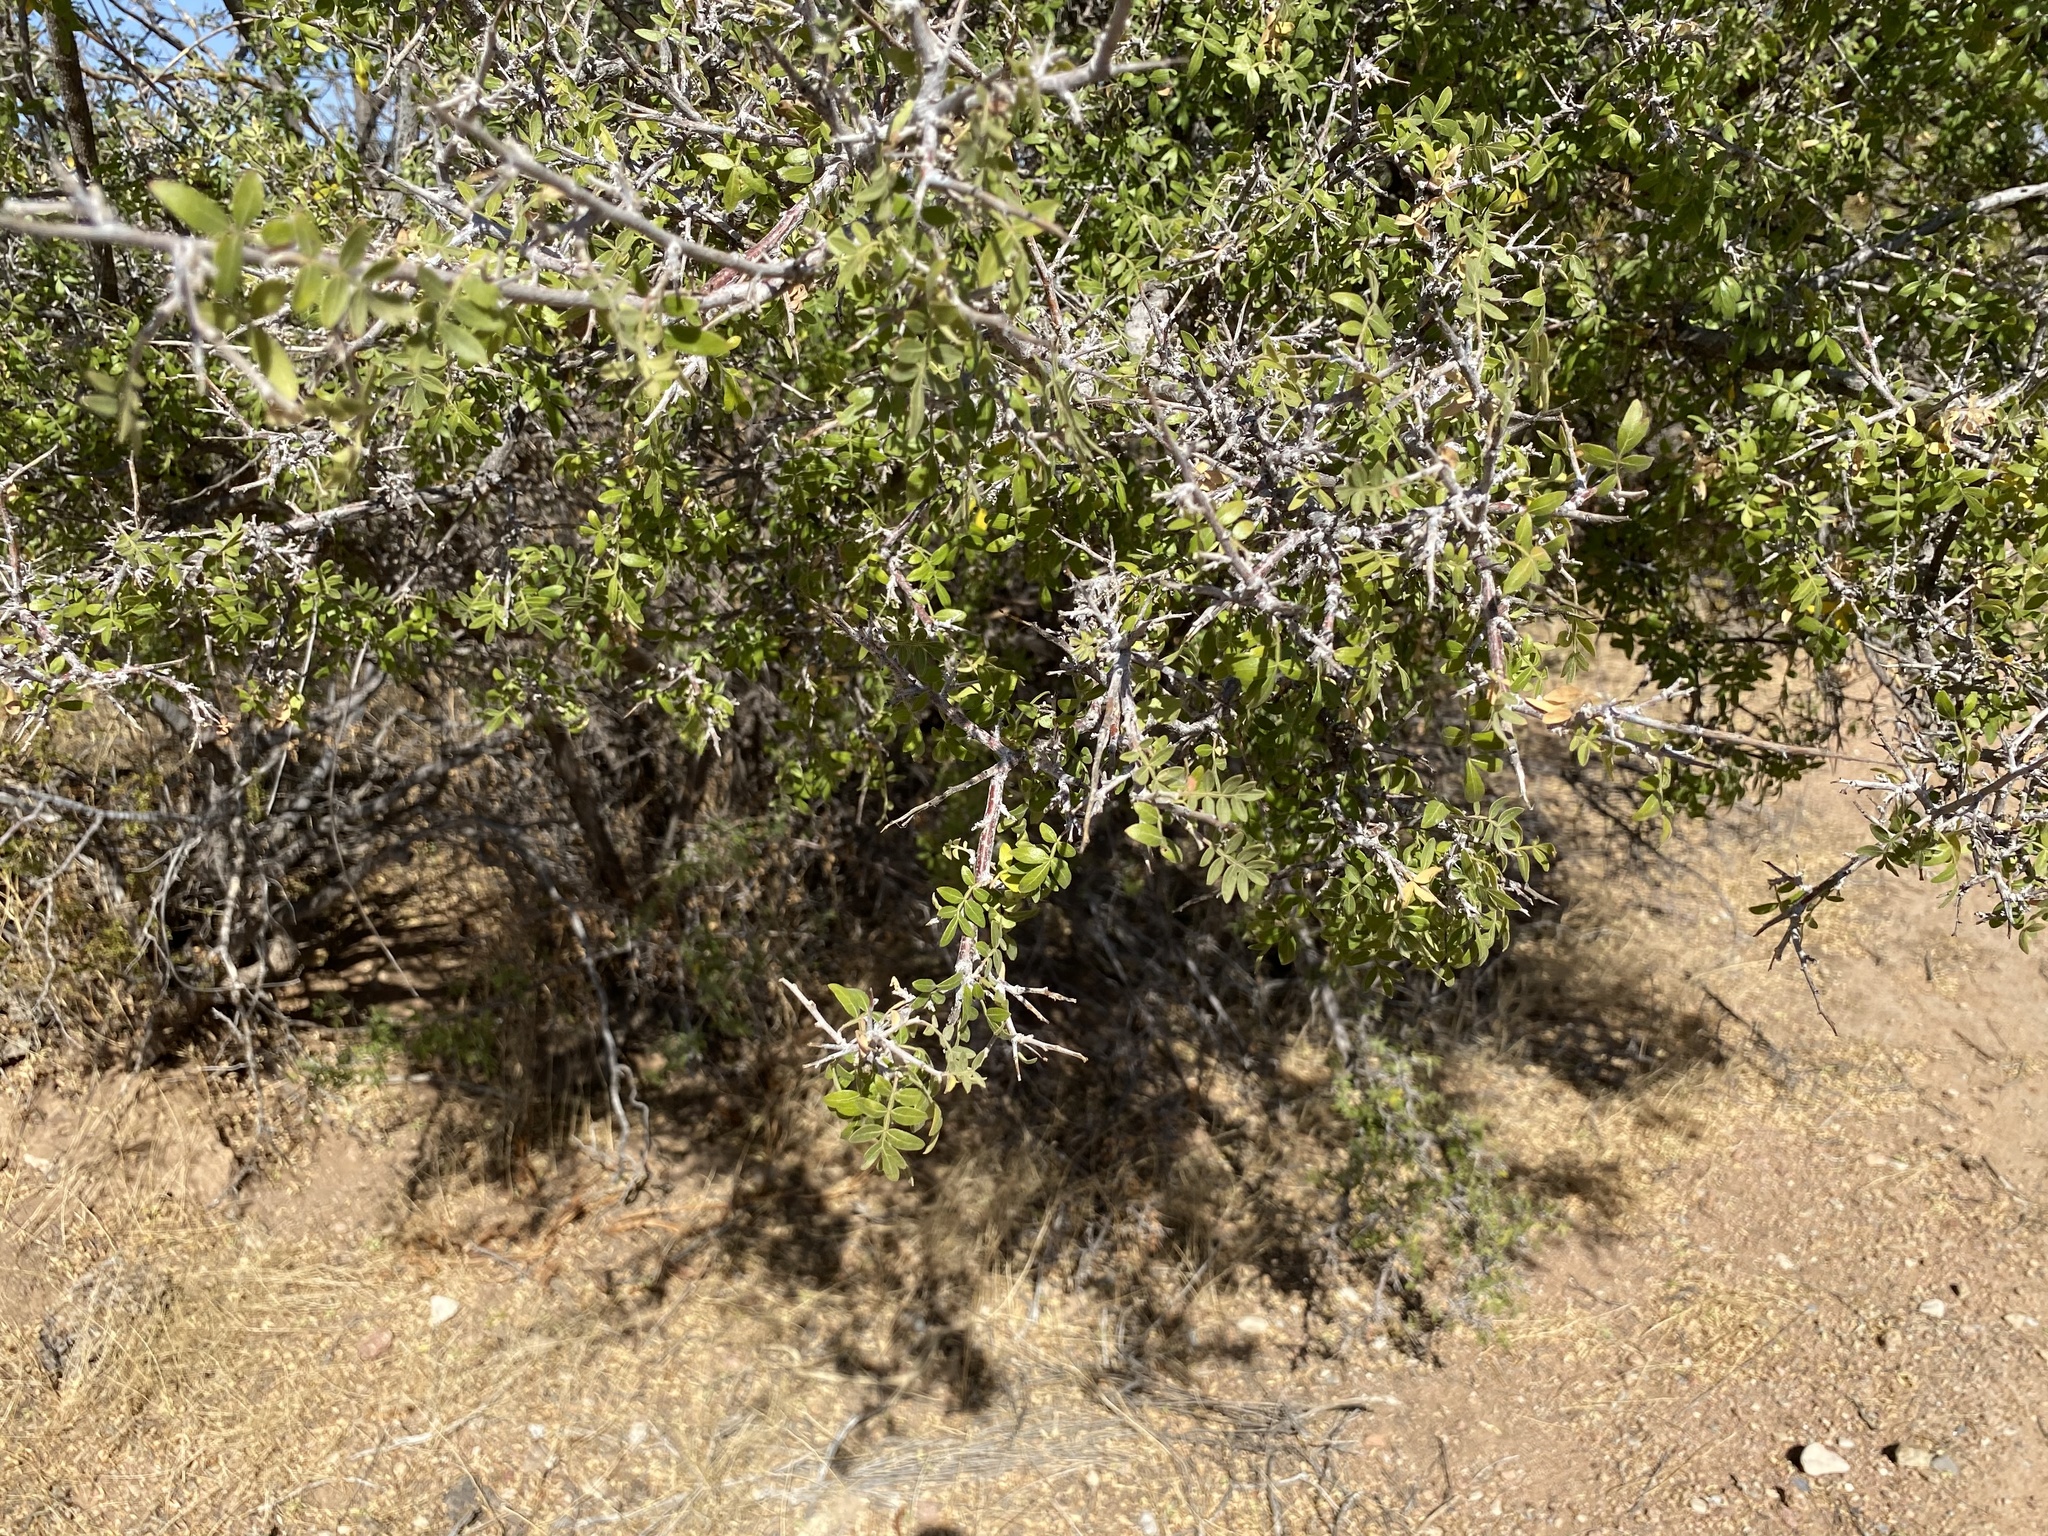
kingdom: Plantae
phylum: Tracheophyta
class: Magnoliopsida
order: Sapindales
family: Anacardiaceae
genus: Rhus
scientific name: Rhus microphylla
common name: Desert sumac
